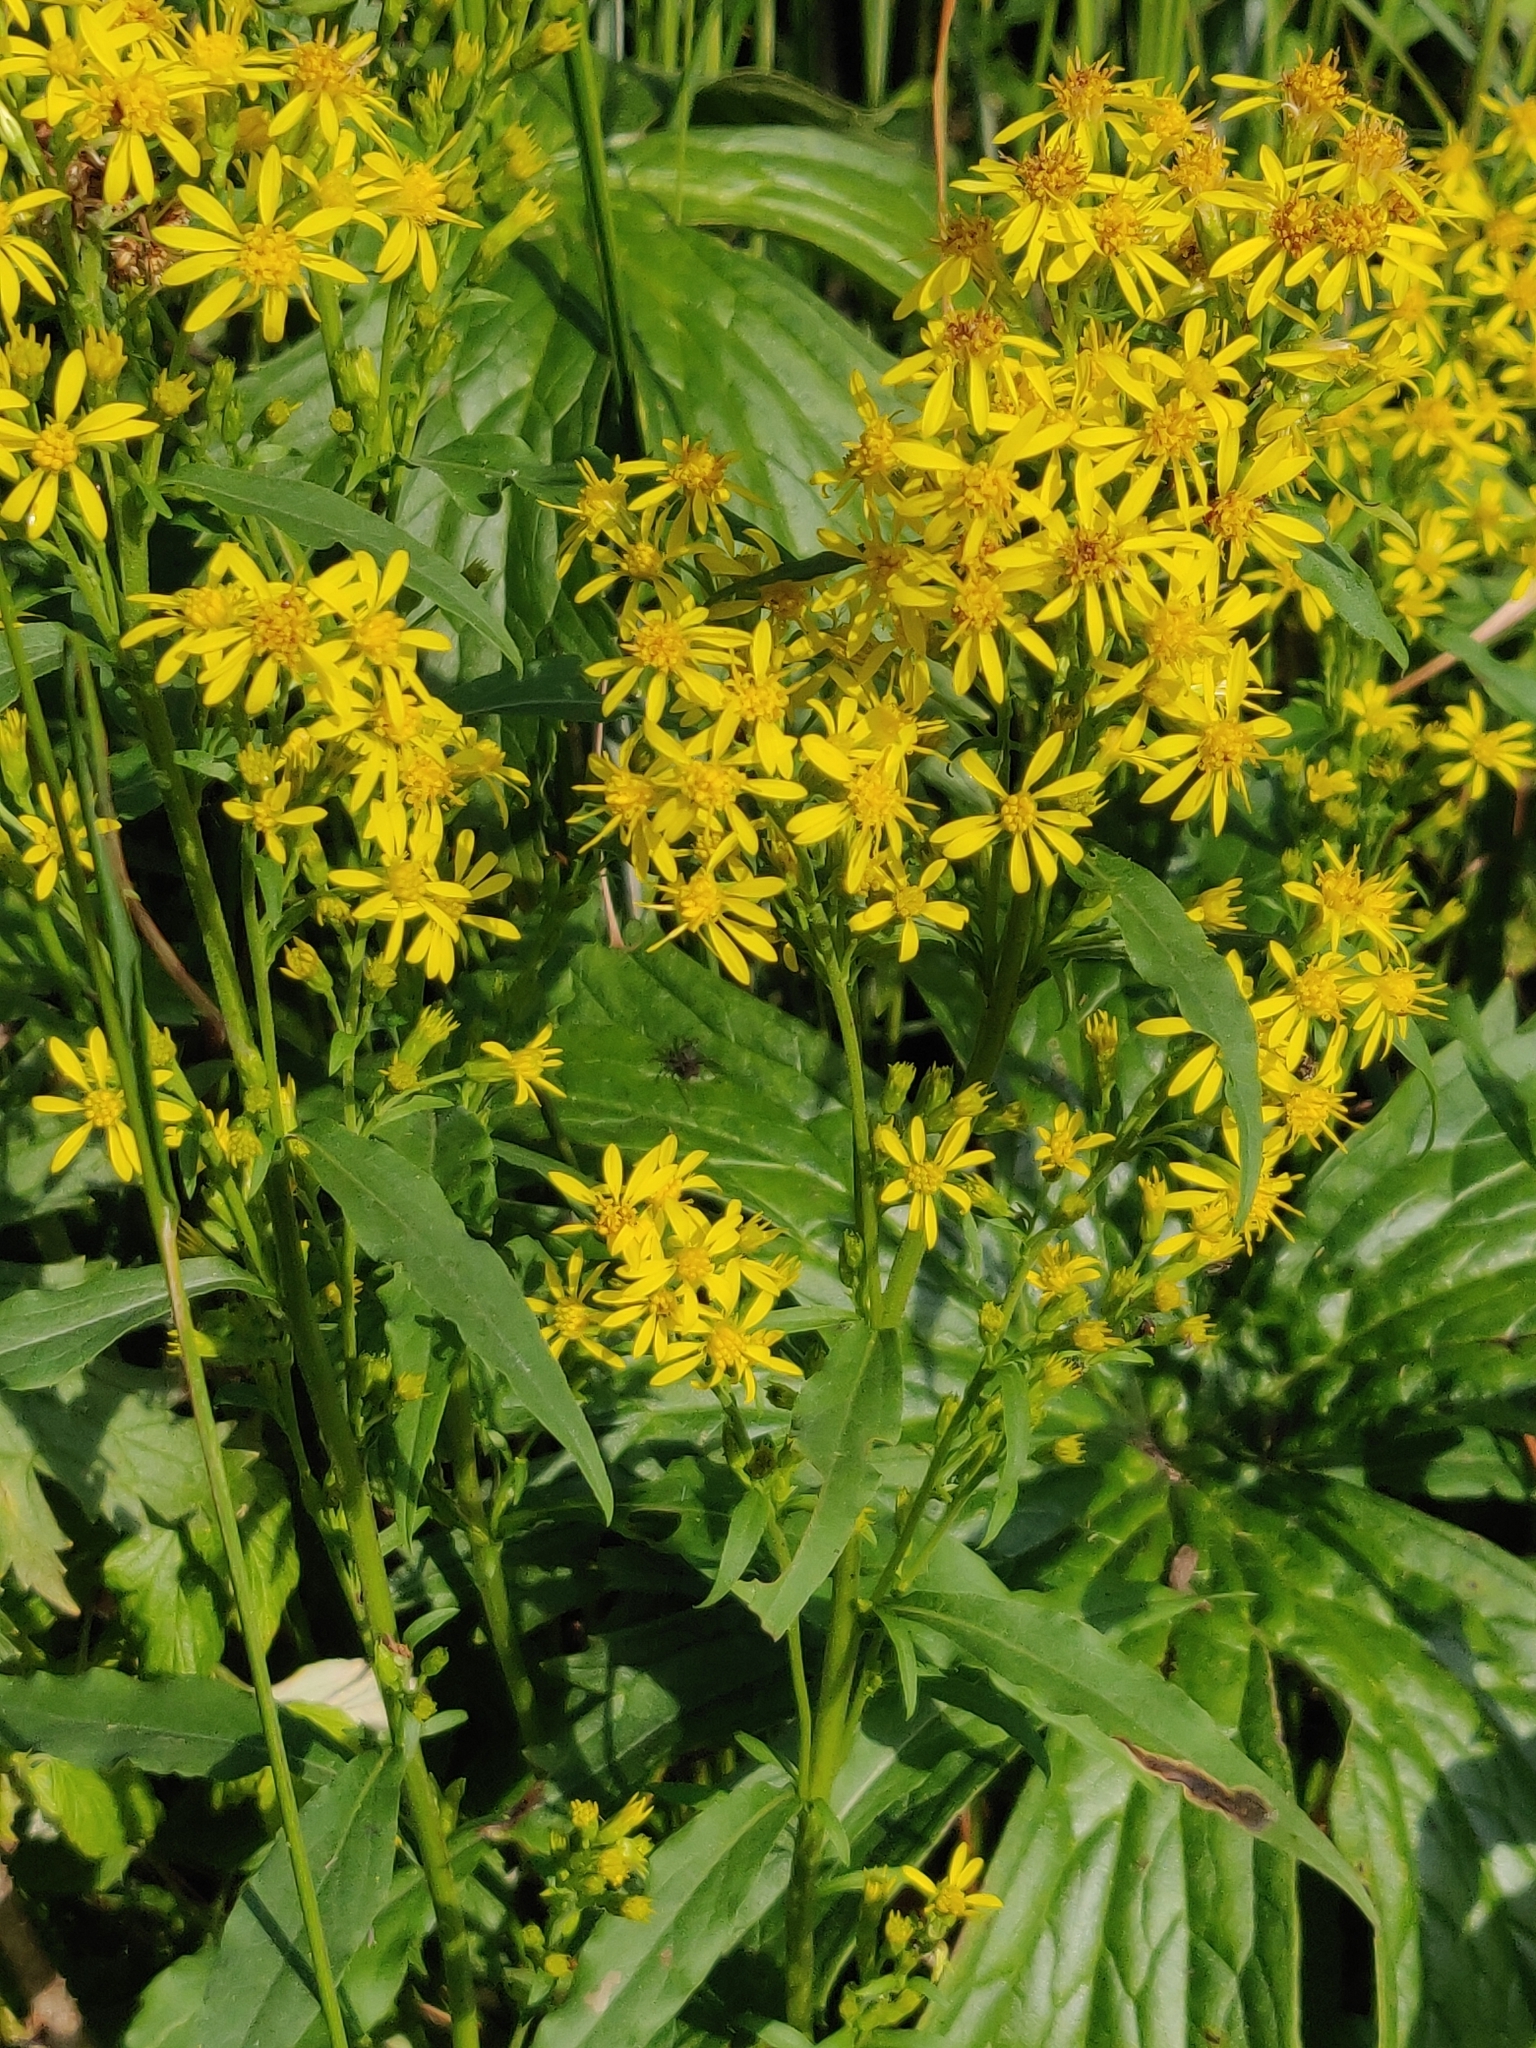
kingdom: Plantae
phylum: Tracheophyta
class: Magnoliopsida
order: Asterales
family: Asteraceae
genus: Solidago
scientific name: Solidago virgaurea
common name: Goldenrod
